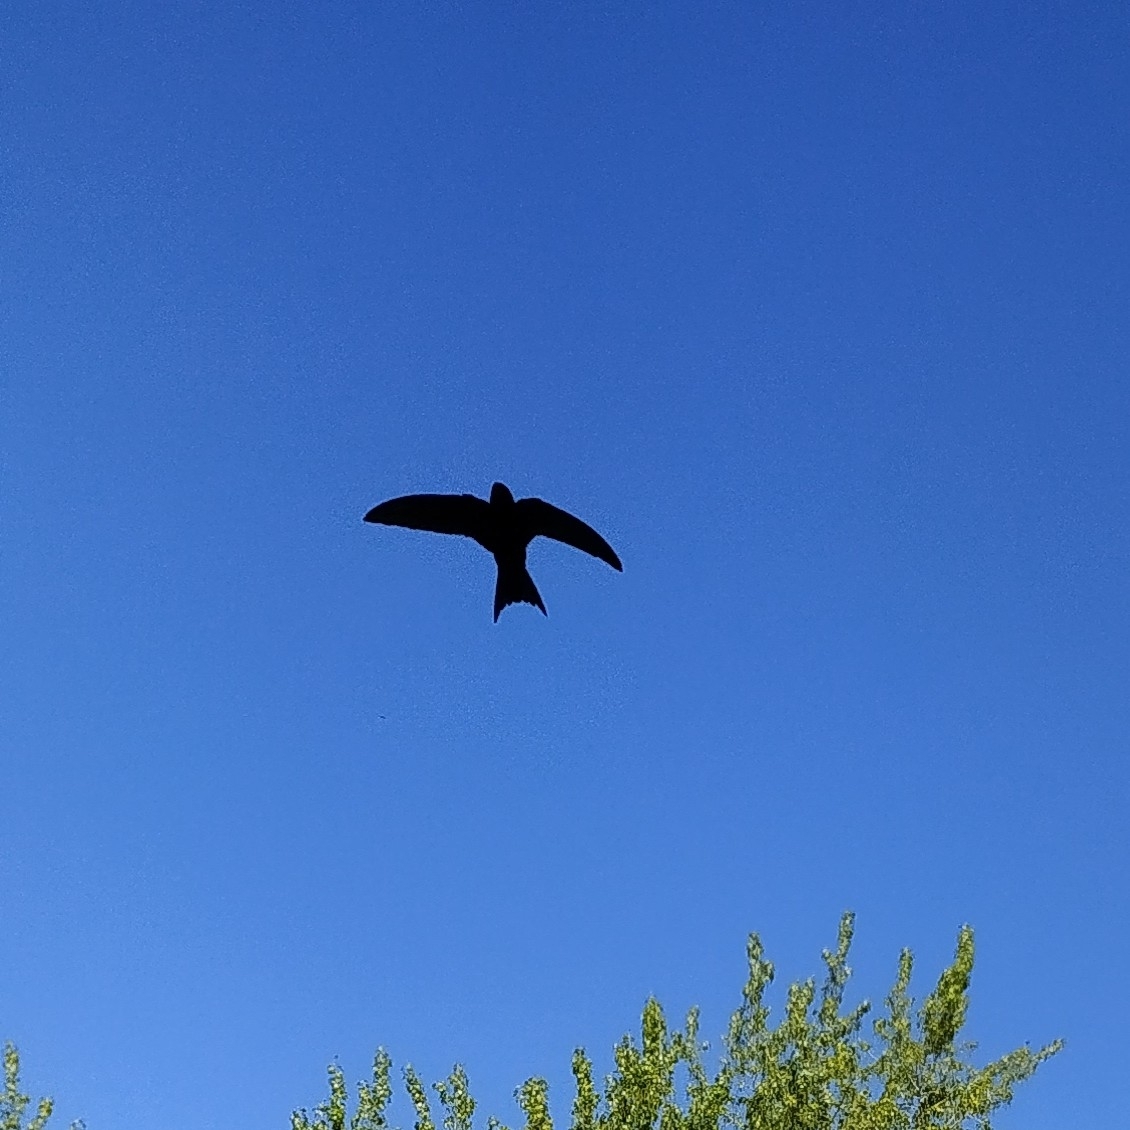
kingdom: Animalia
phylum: Chordata
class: Aves
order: Apodiformes
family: Apodidae
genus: Apus
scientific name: Apus apus
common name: Common swift
